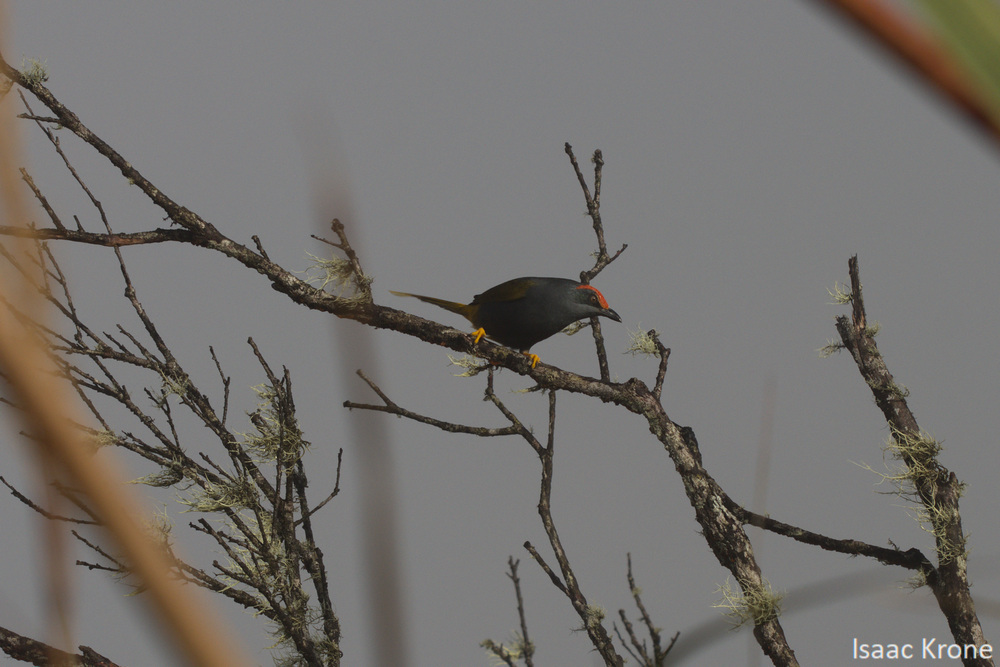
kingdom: Animalia
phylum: Chordata
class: Aves
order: Passeriformes
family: Sturnidae
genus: Enodes
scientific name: Enodes erythrophris
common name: Fiery-browed starling
